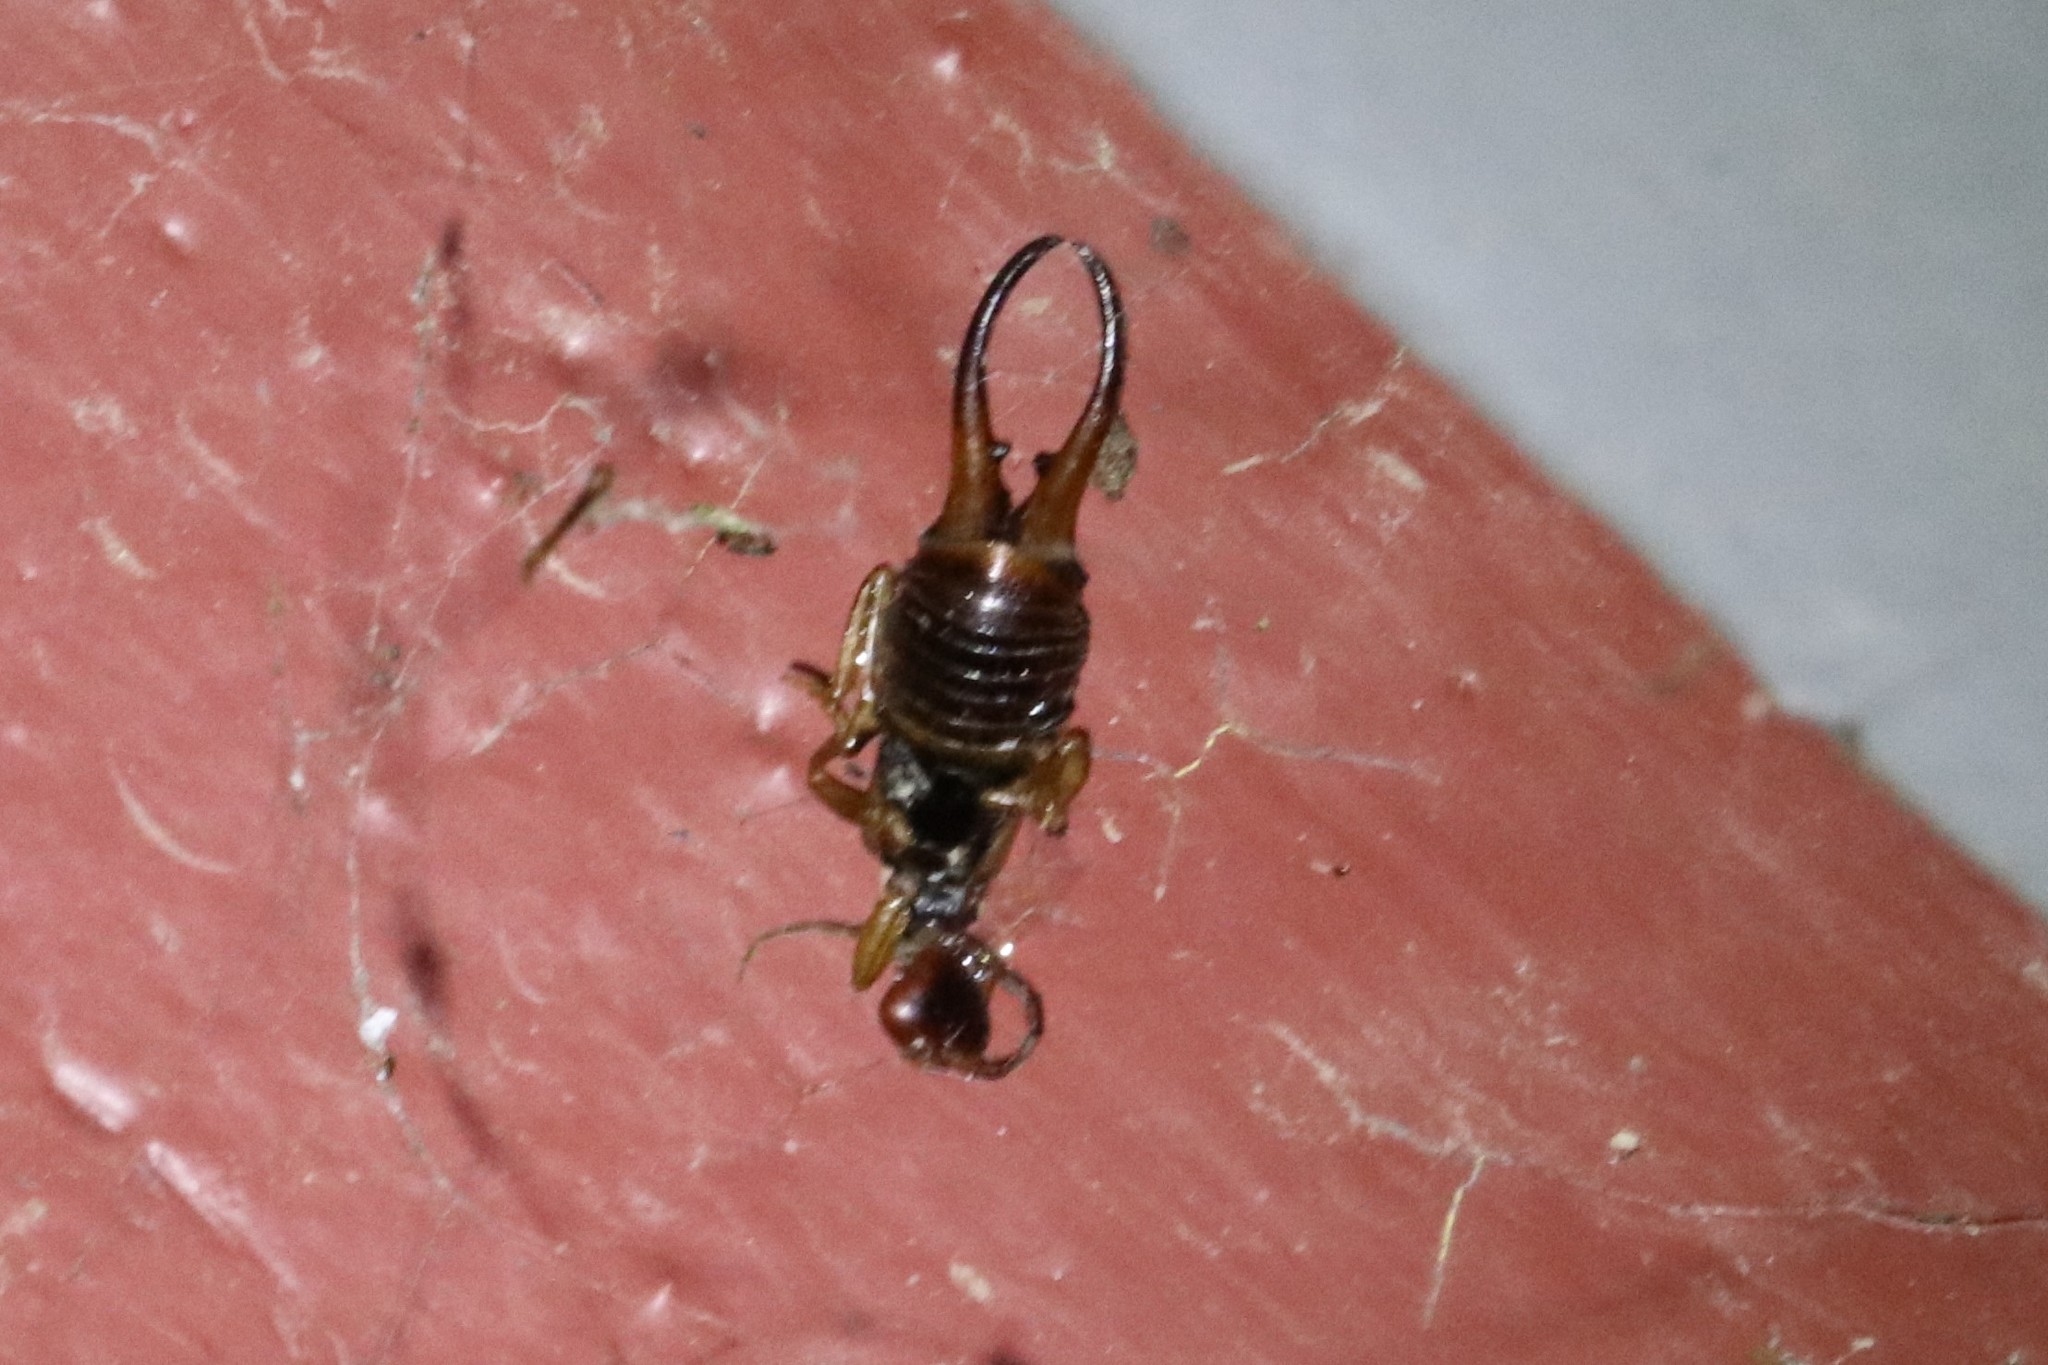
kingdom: Animalia
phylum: Arthropoda
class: Insecta
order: Dermaptera
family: Forficulidae
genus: Forficula
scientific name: Forficula
